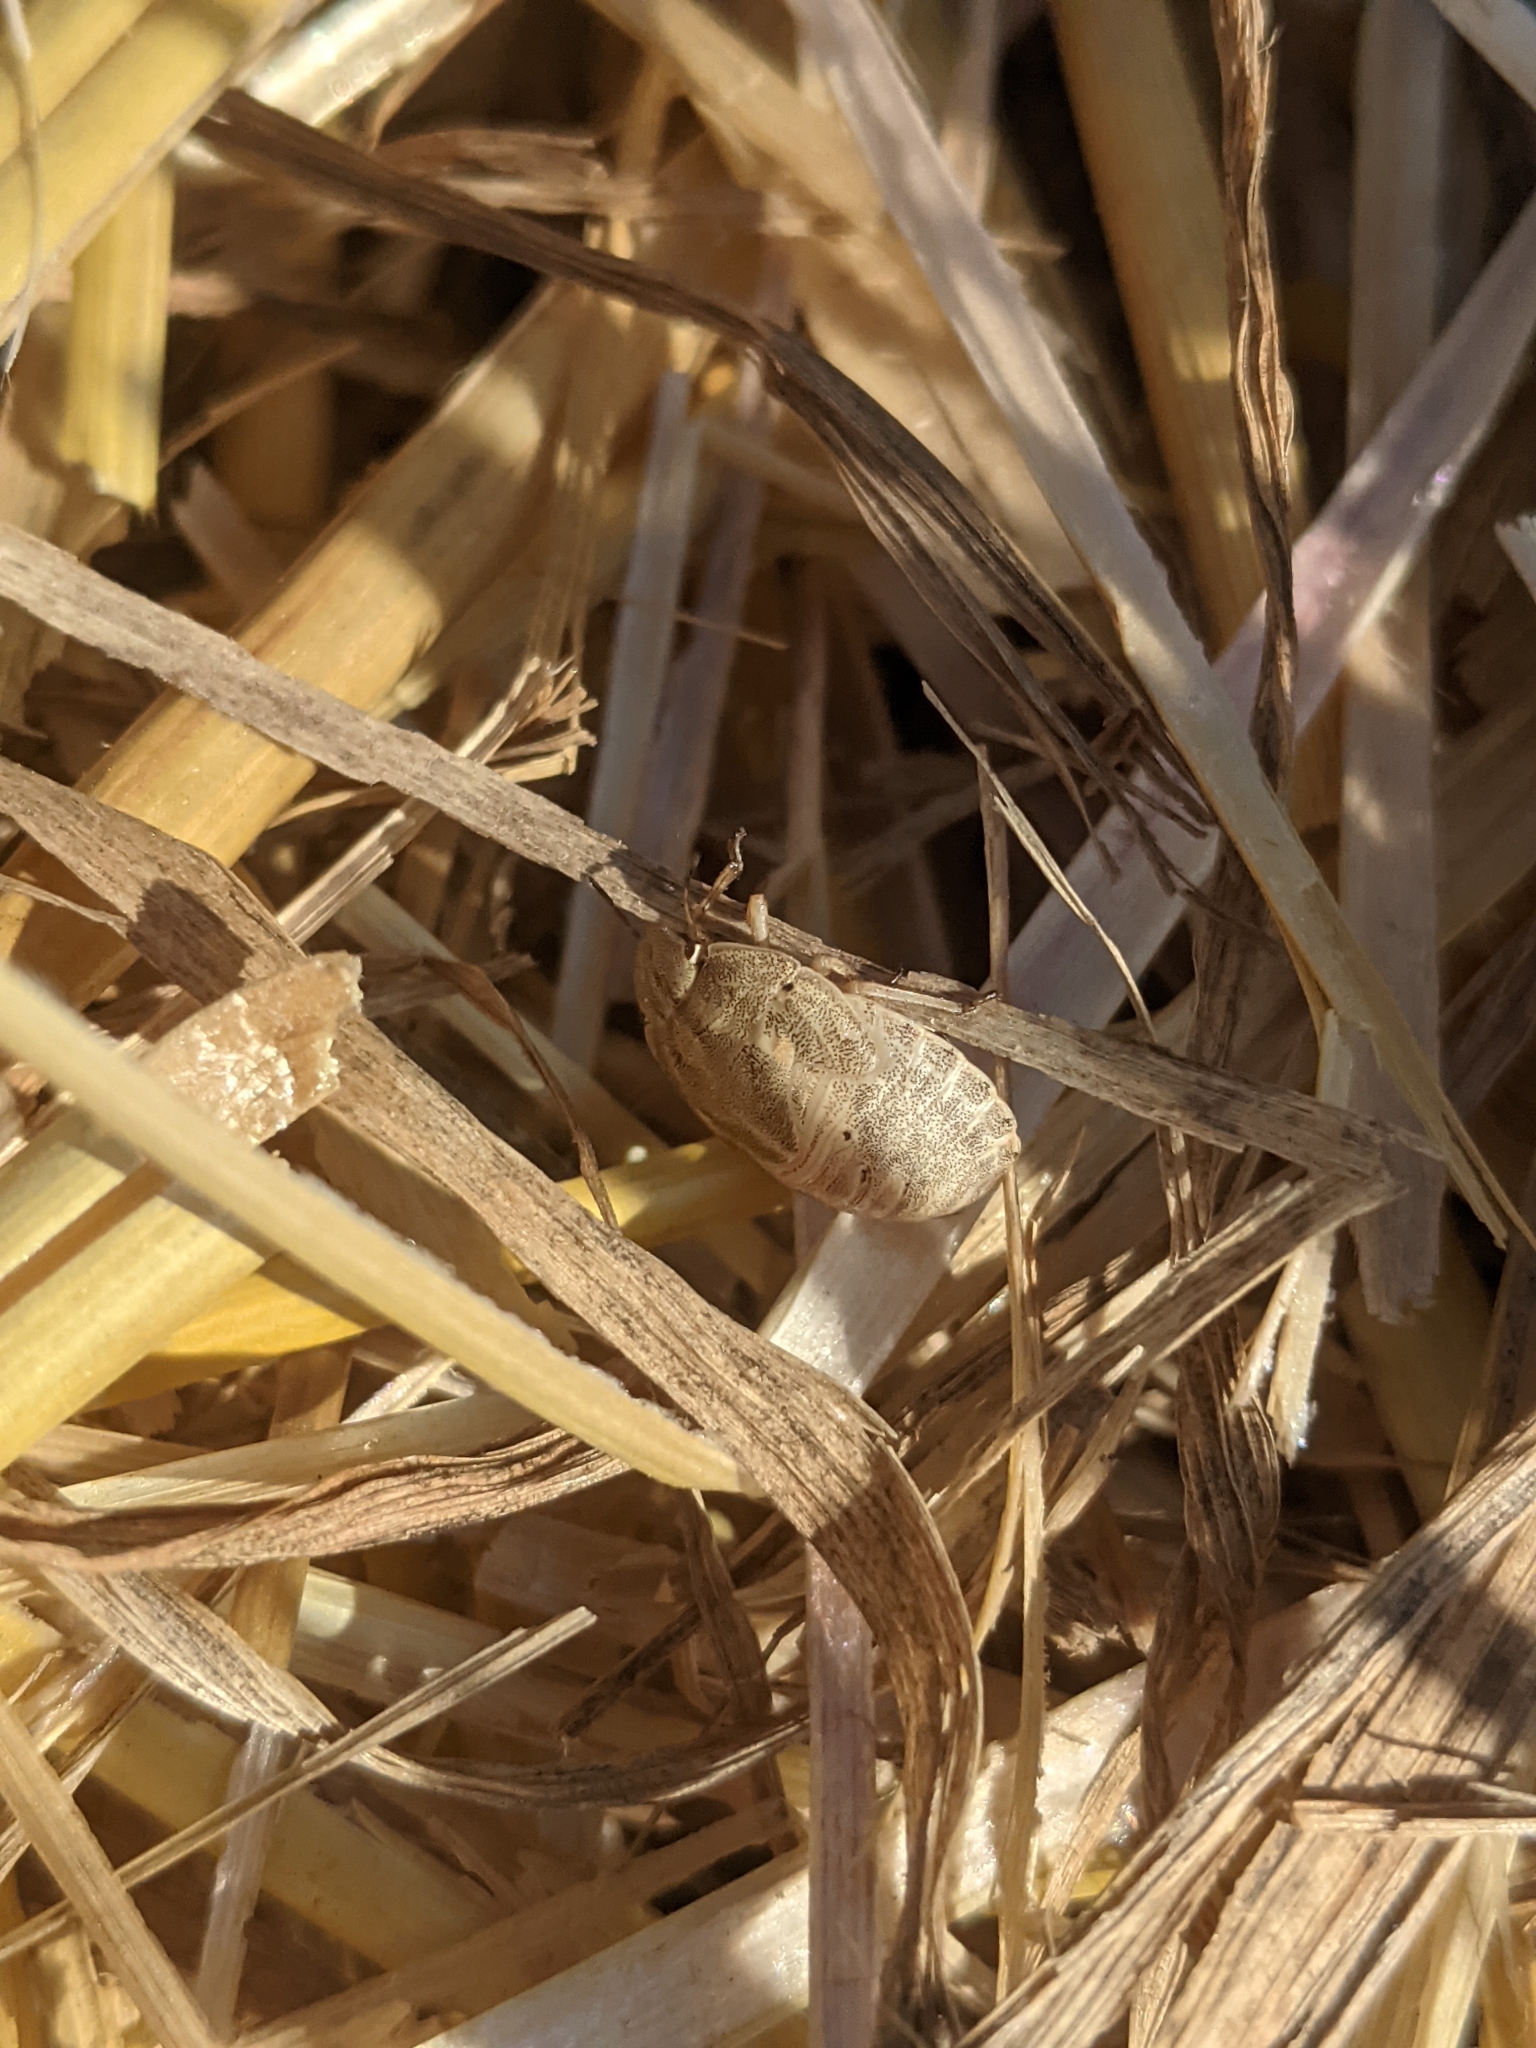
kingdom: Animalia
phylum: Arthropoda
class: Insecta
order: Hemiptera
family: Scutelleridae
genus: Eurygaster
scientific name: Eurygaster maura
